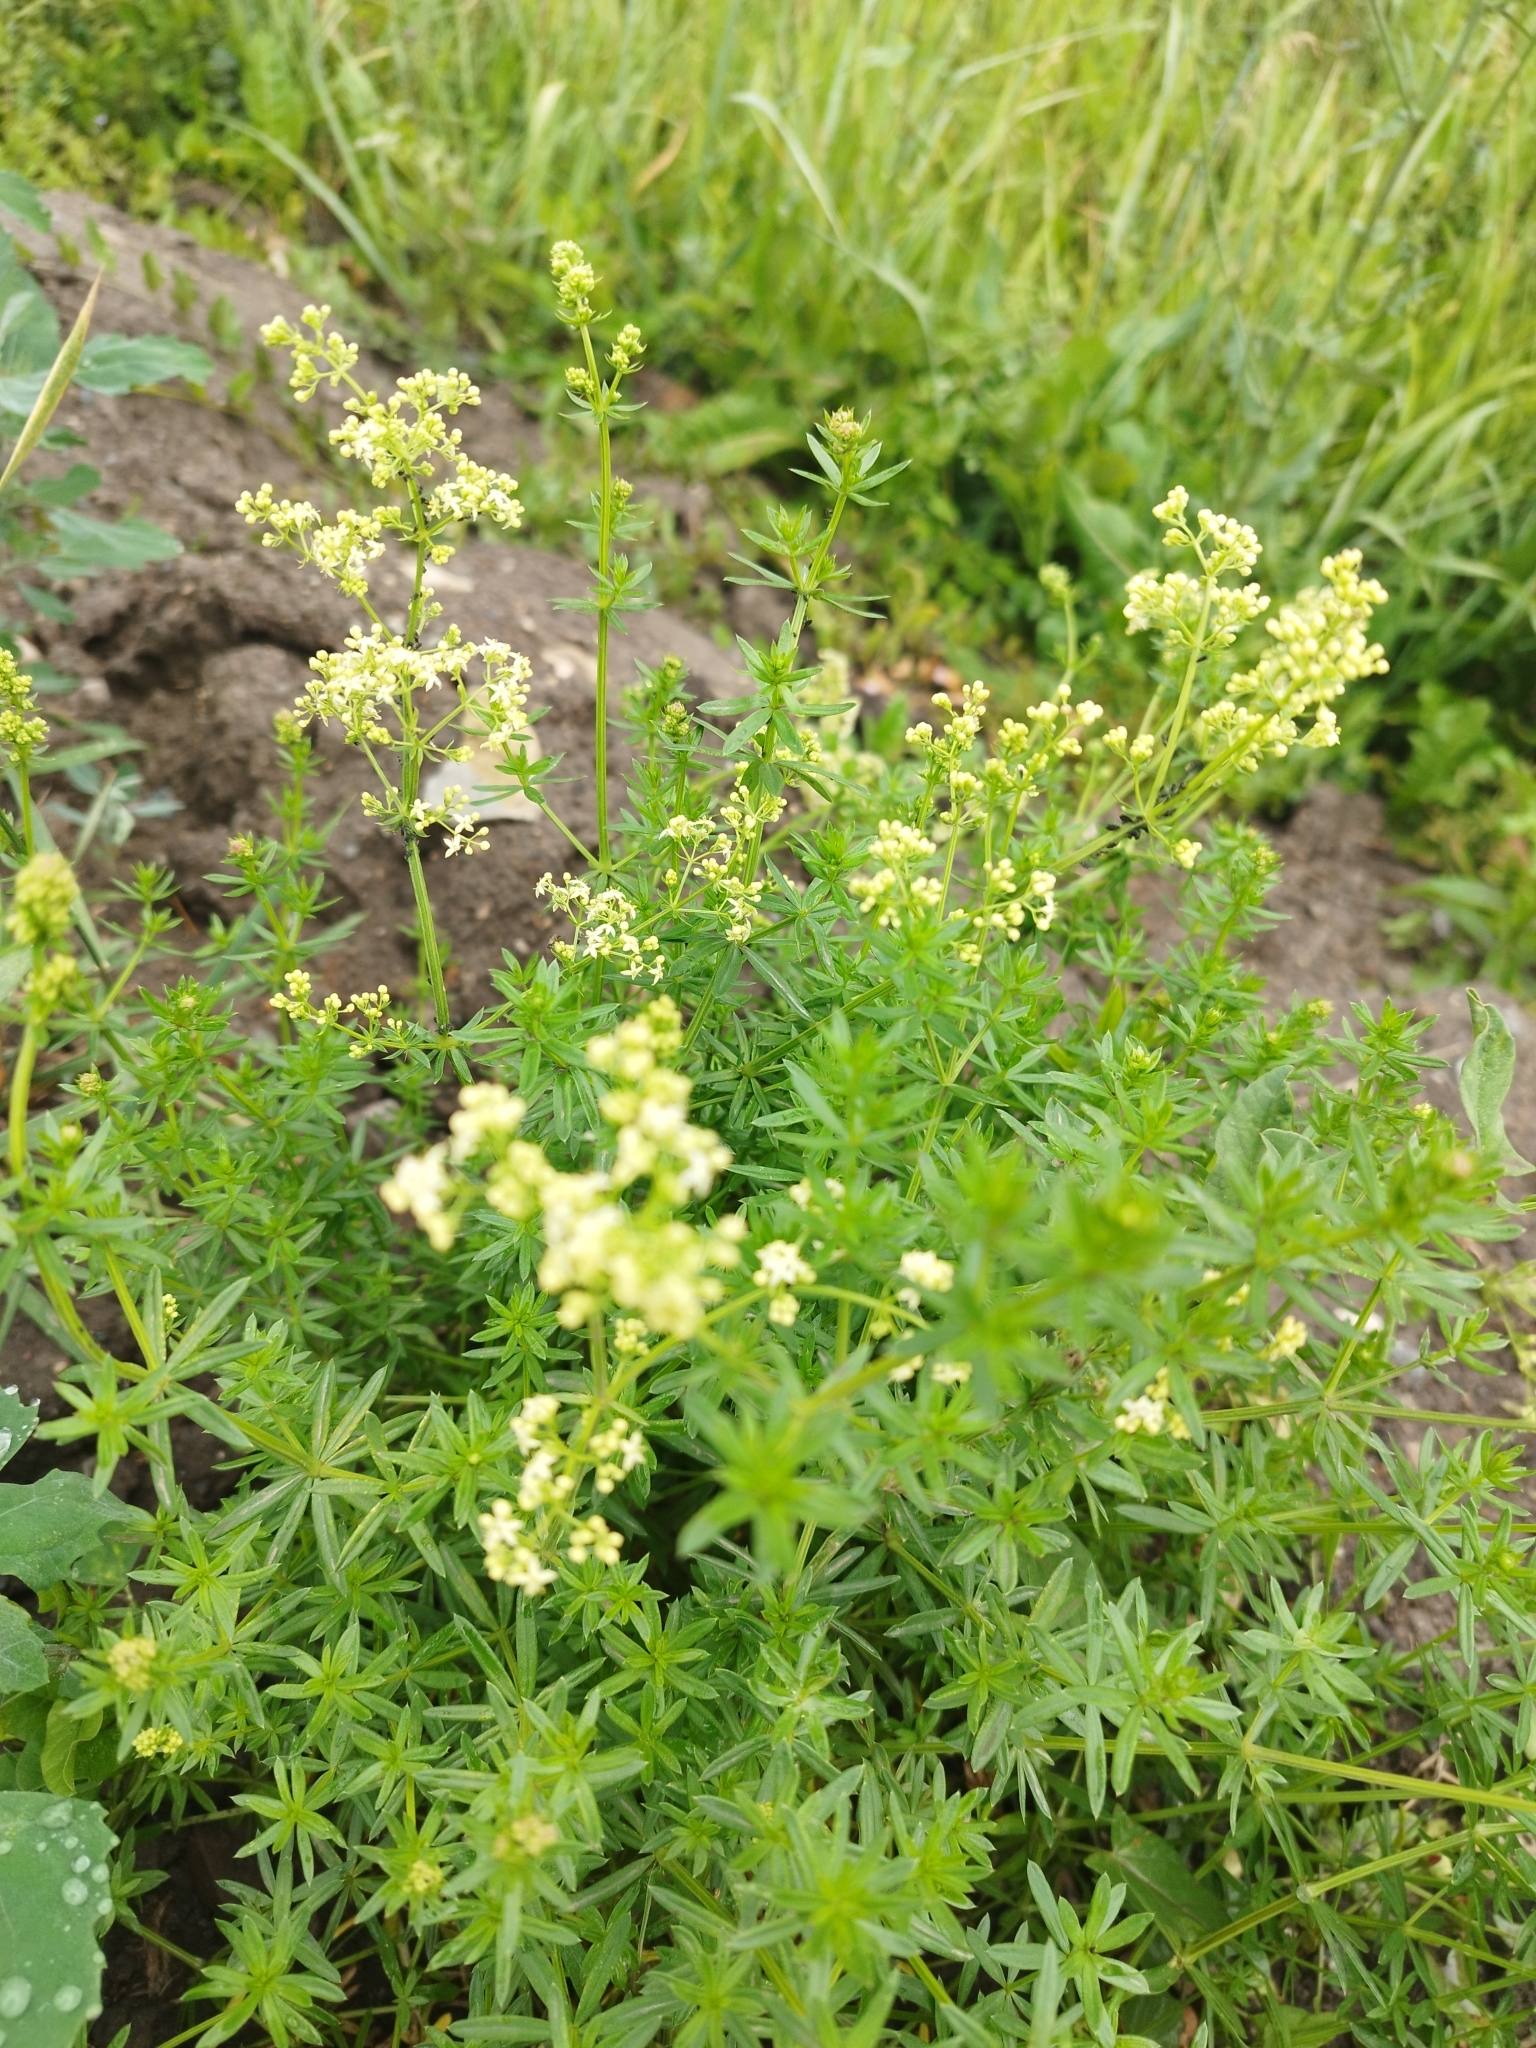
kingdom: Plantae
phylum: Tracheophyta
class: Magnoliopsida
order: Gentianales
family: Rubiaceae
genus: Galium
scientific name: Galium mollugo
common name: Hedge bedstraw
